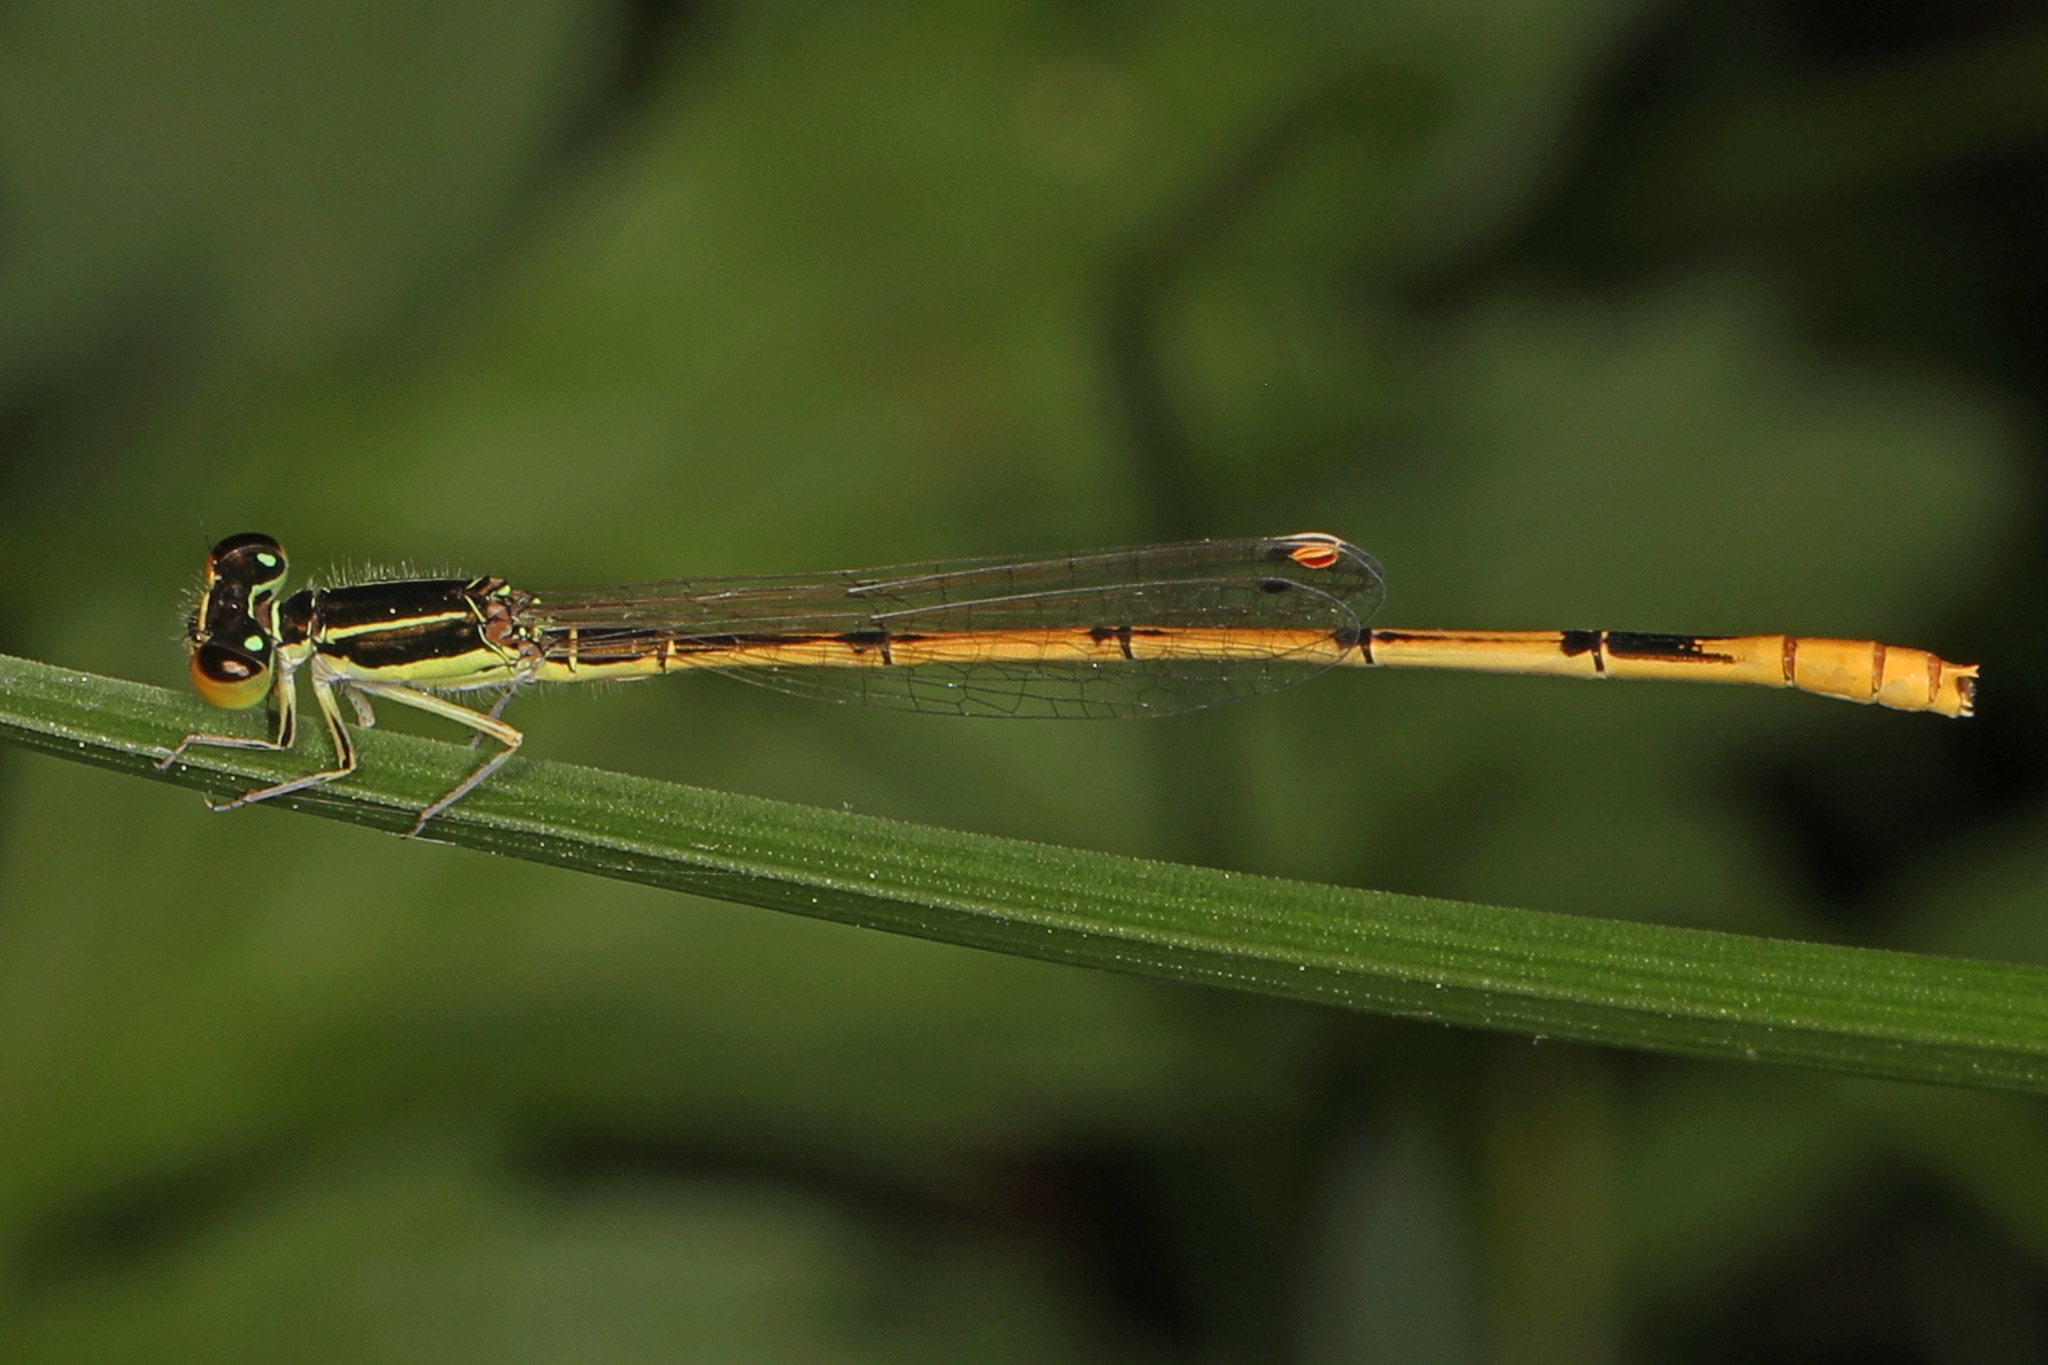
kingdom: Animalia
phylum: Arthropoda
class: Insecta
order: Odonata
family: Coenagrionidae
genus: Ischnura
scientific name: Ischnura hastata
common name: Citrine forktail
